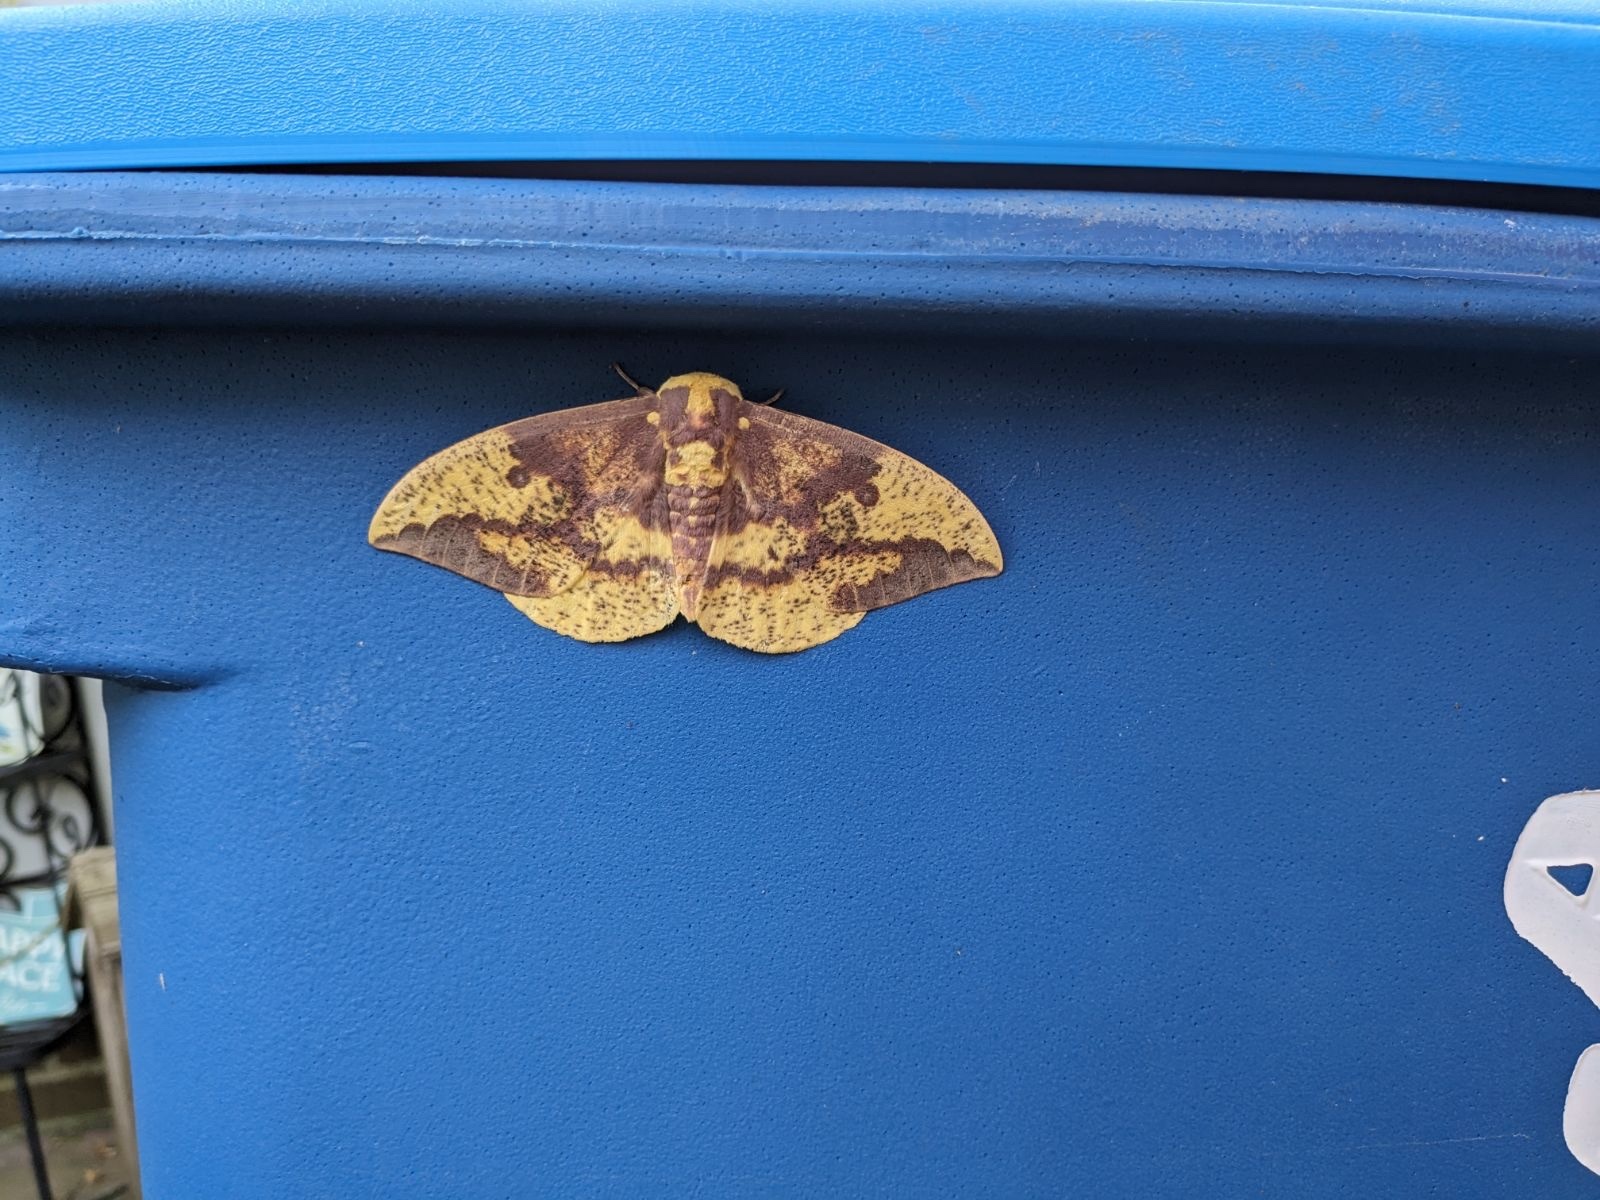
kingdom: Animalia
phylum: Arthropoda
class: Insecta
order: Lepidoptera
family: Saturniidae
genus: Eacles
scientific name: Eacles imperialis
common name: Imperial moth
